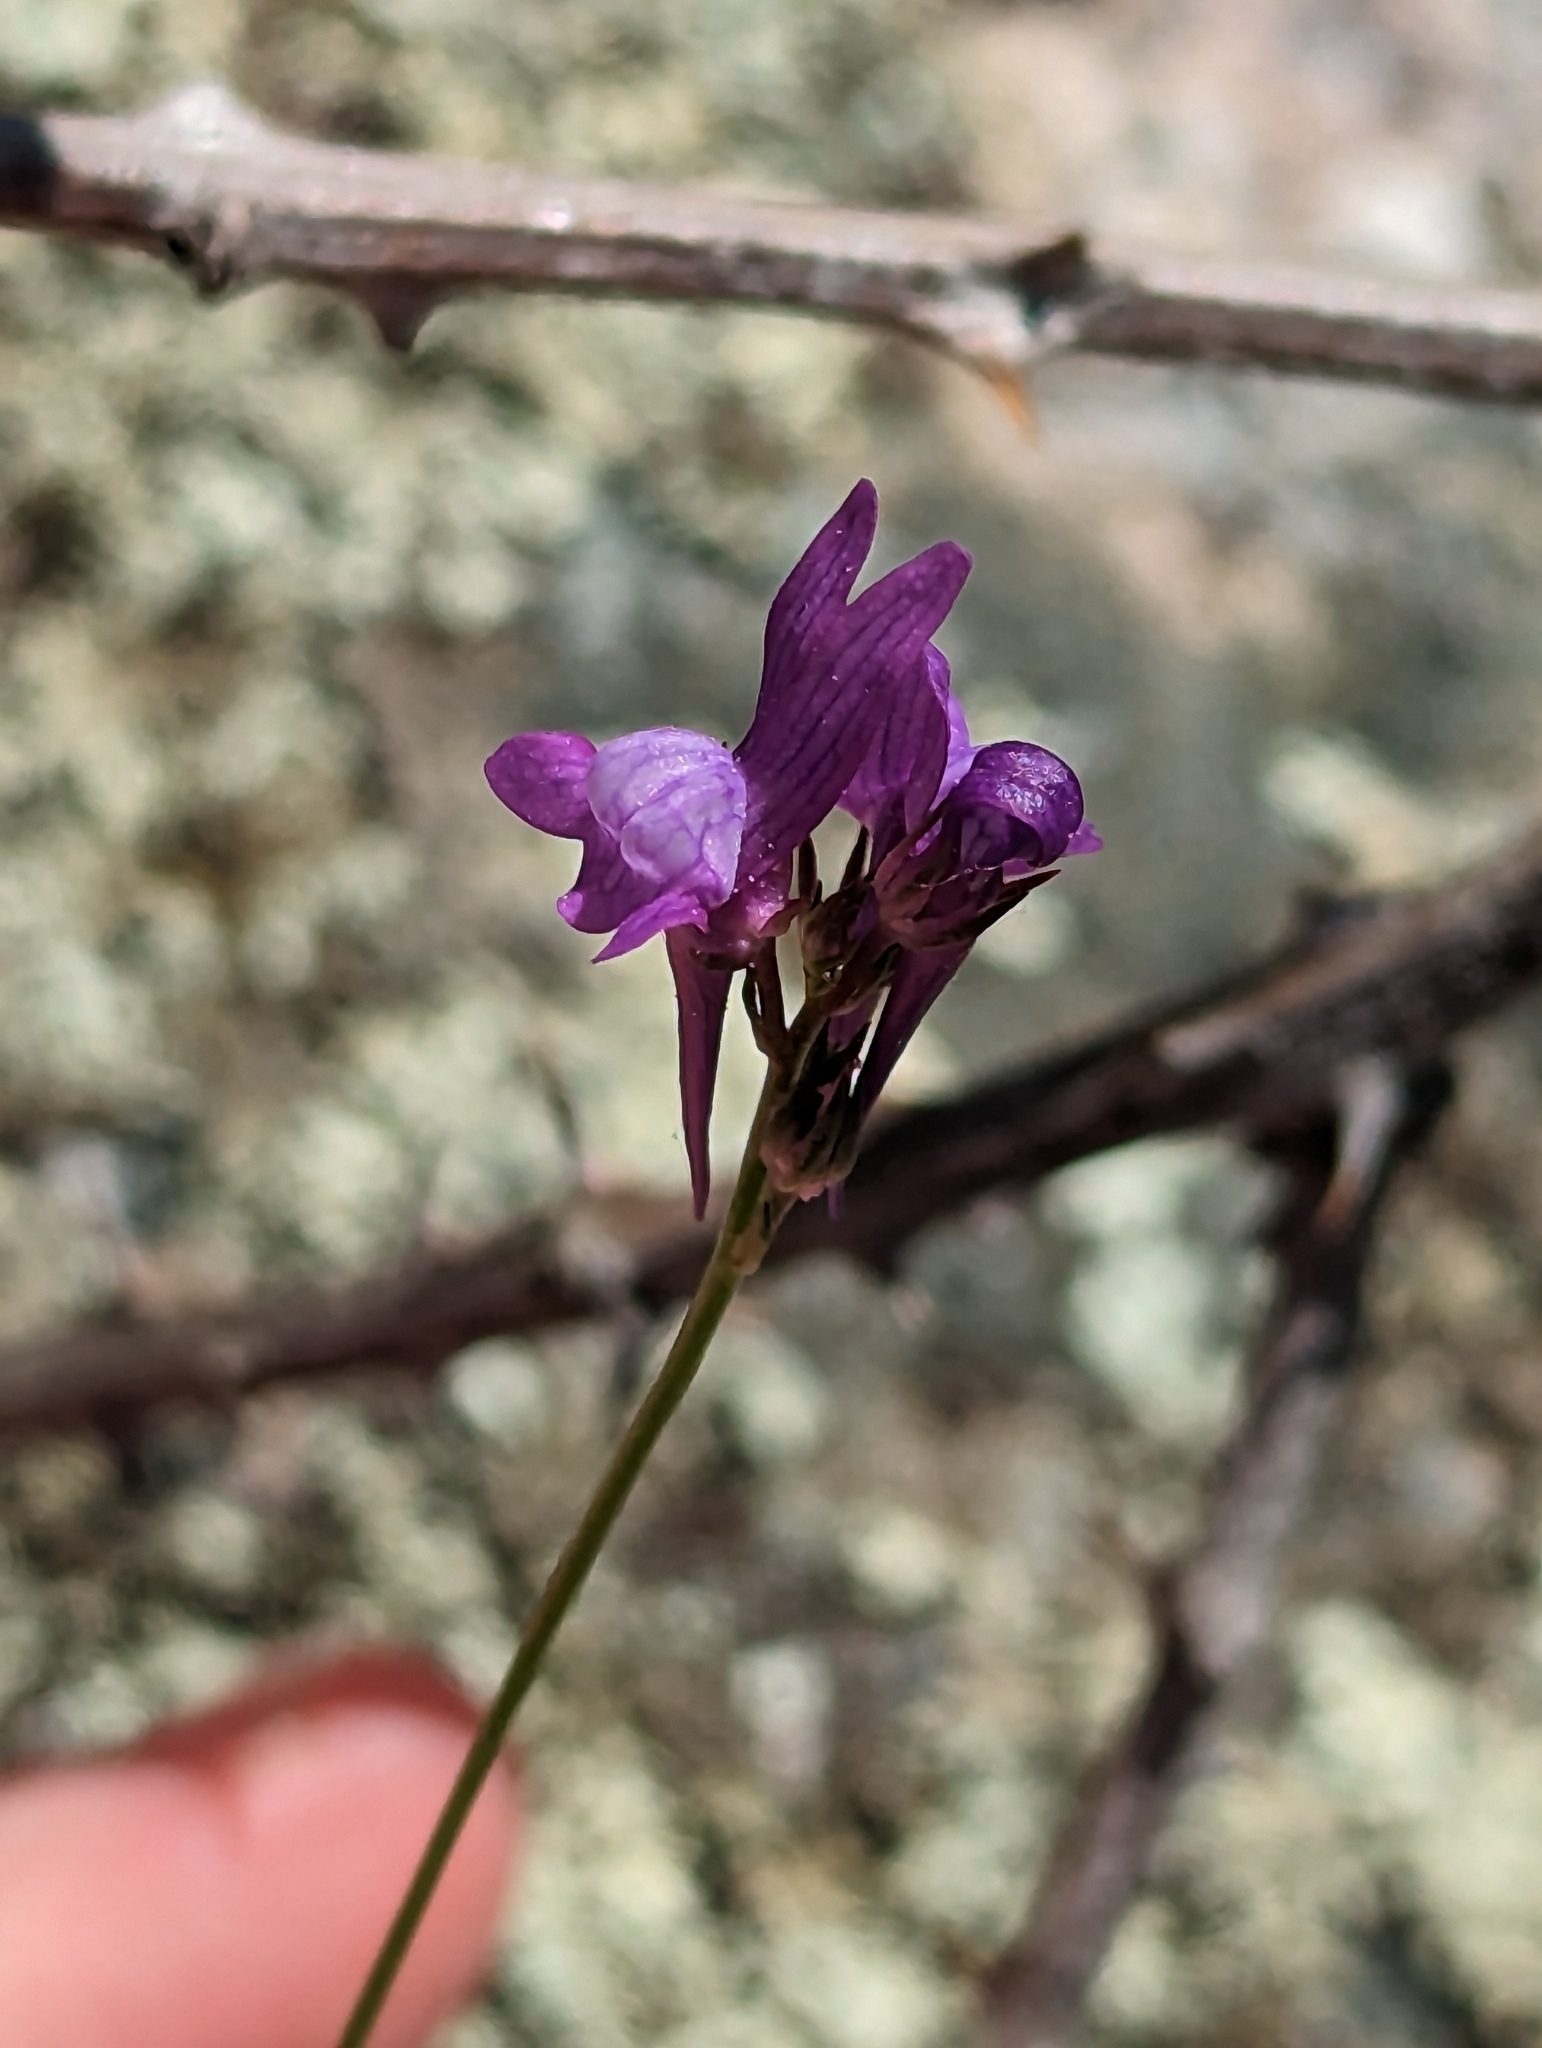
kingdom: Plantae
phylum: Tracheophyta
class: Magnoliopsida
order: Lamiales
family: Plantaginaceae
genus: Linaria
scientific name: Linaria pelisseriana
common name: Jersey toadflax
